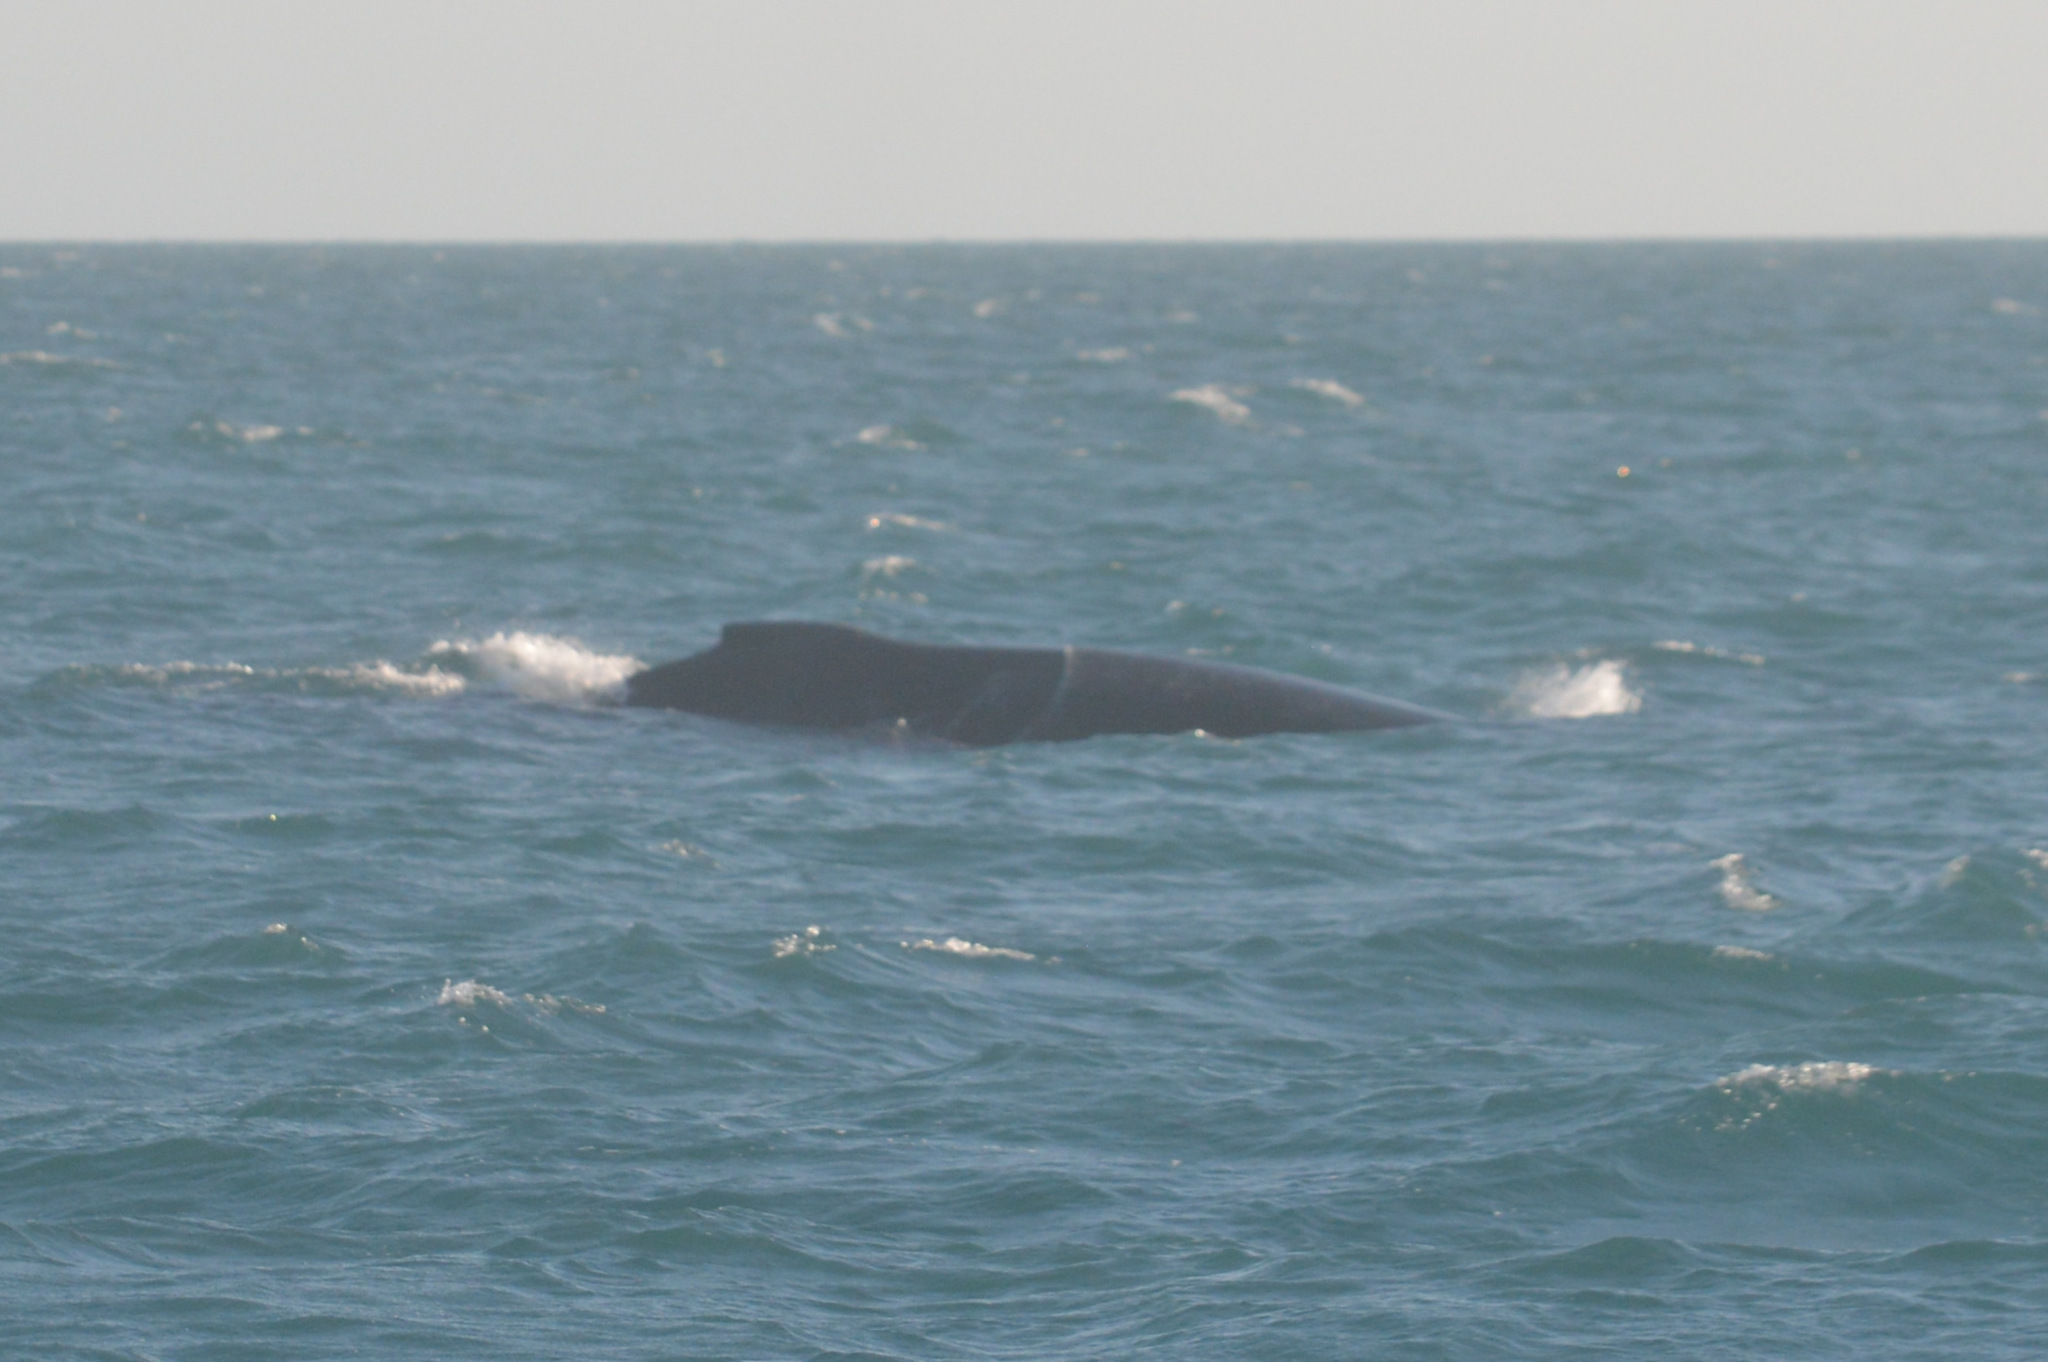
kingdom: Animalia
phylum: Chordata
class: Mammalia
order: Cetacea
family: Balaenopteridae
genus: Megaptera
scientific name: Megaptera novaeangliae
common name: Humpback whale
